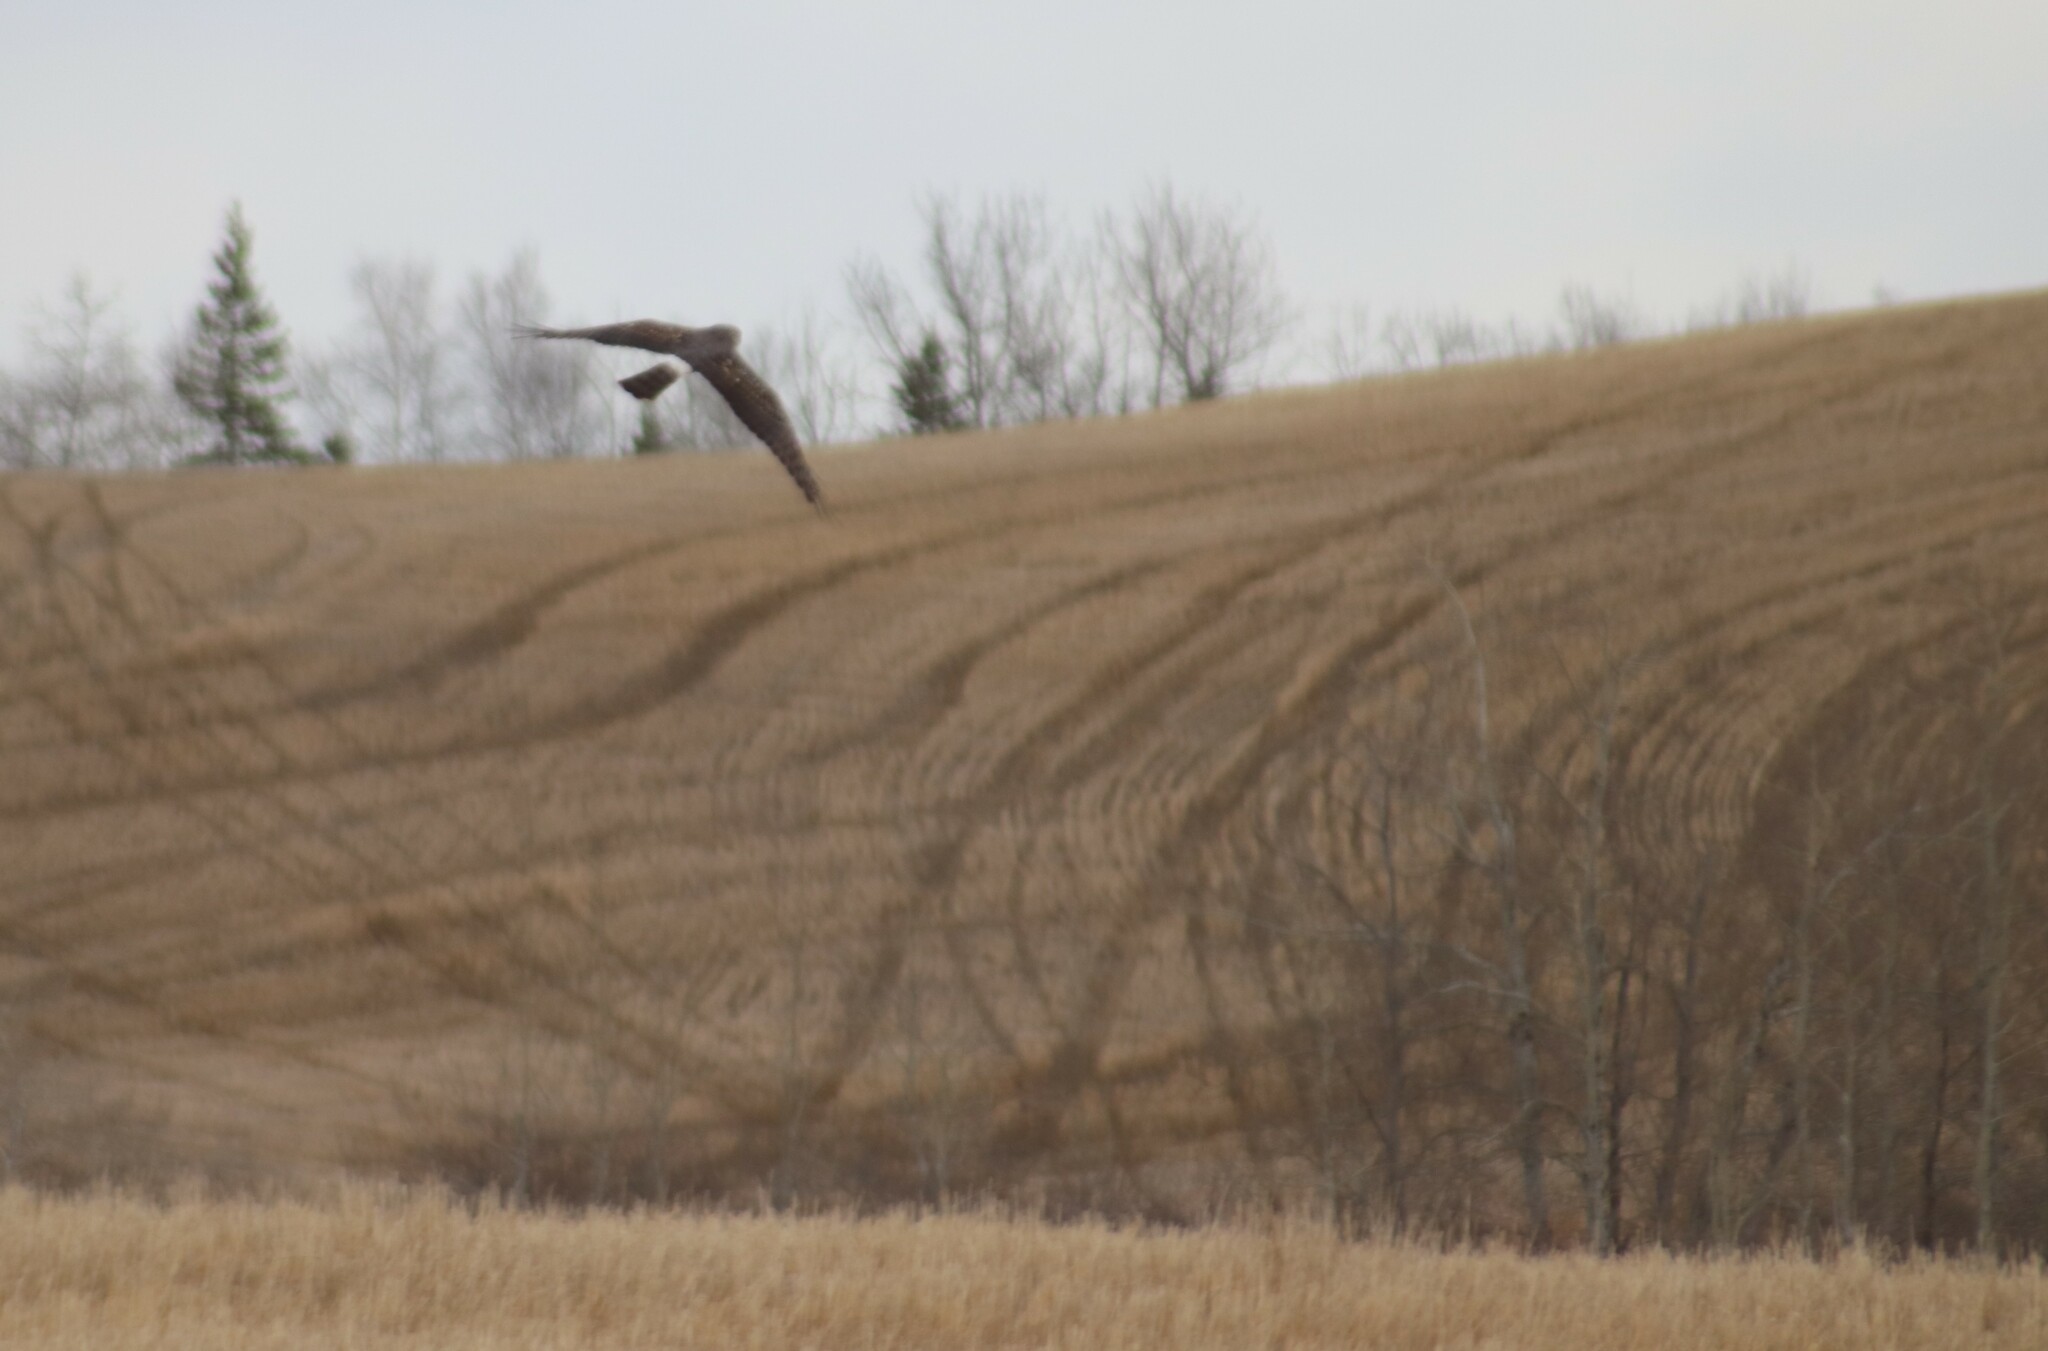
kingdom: Animalia
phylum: Chordata
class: Aves
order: Accipitriformes
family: Accipitridae
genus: Circus
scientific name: Circus cyaneus
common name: Hen harrier
